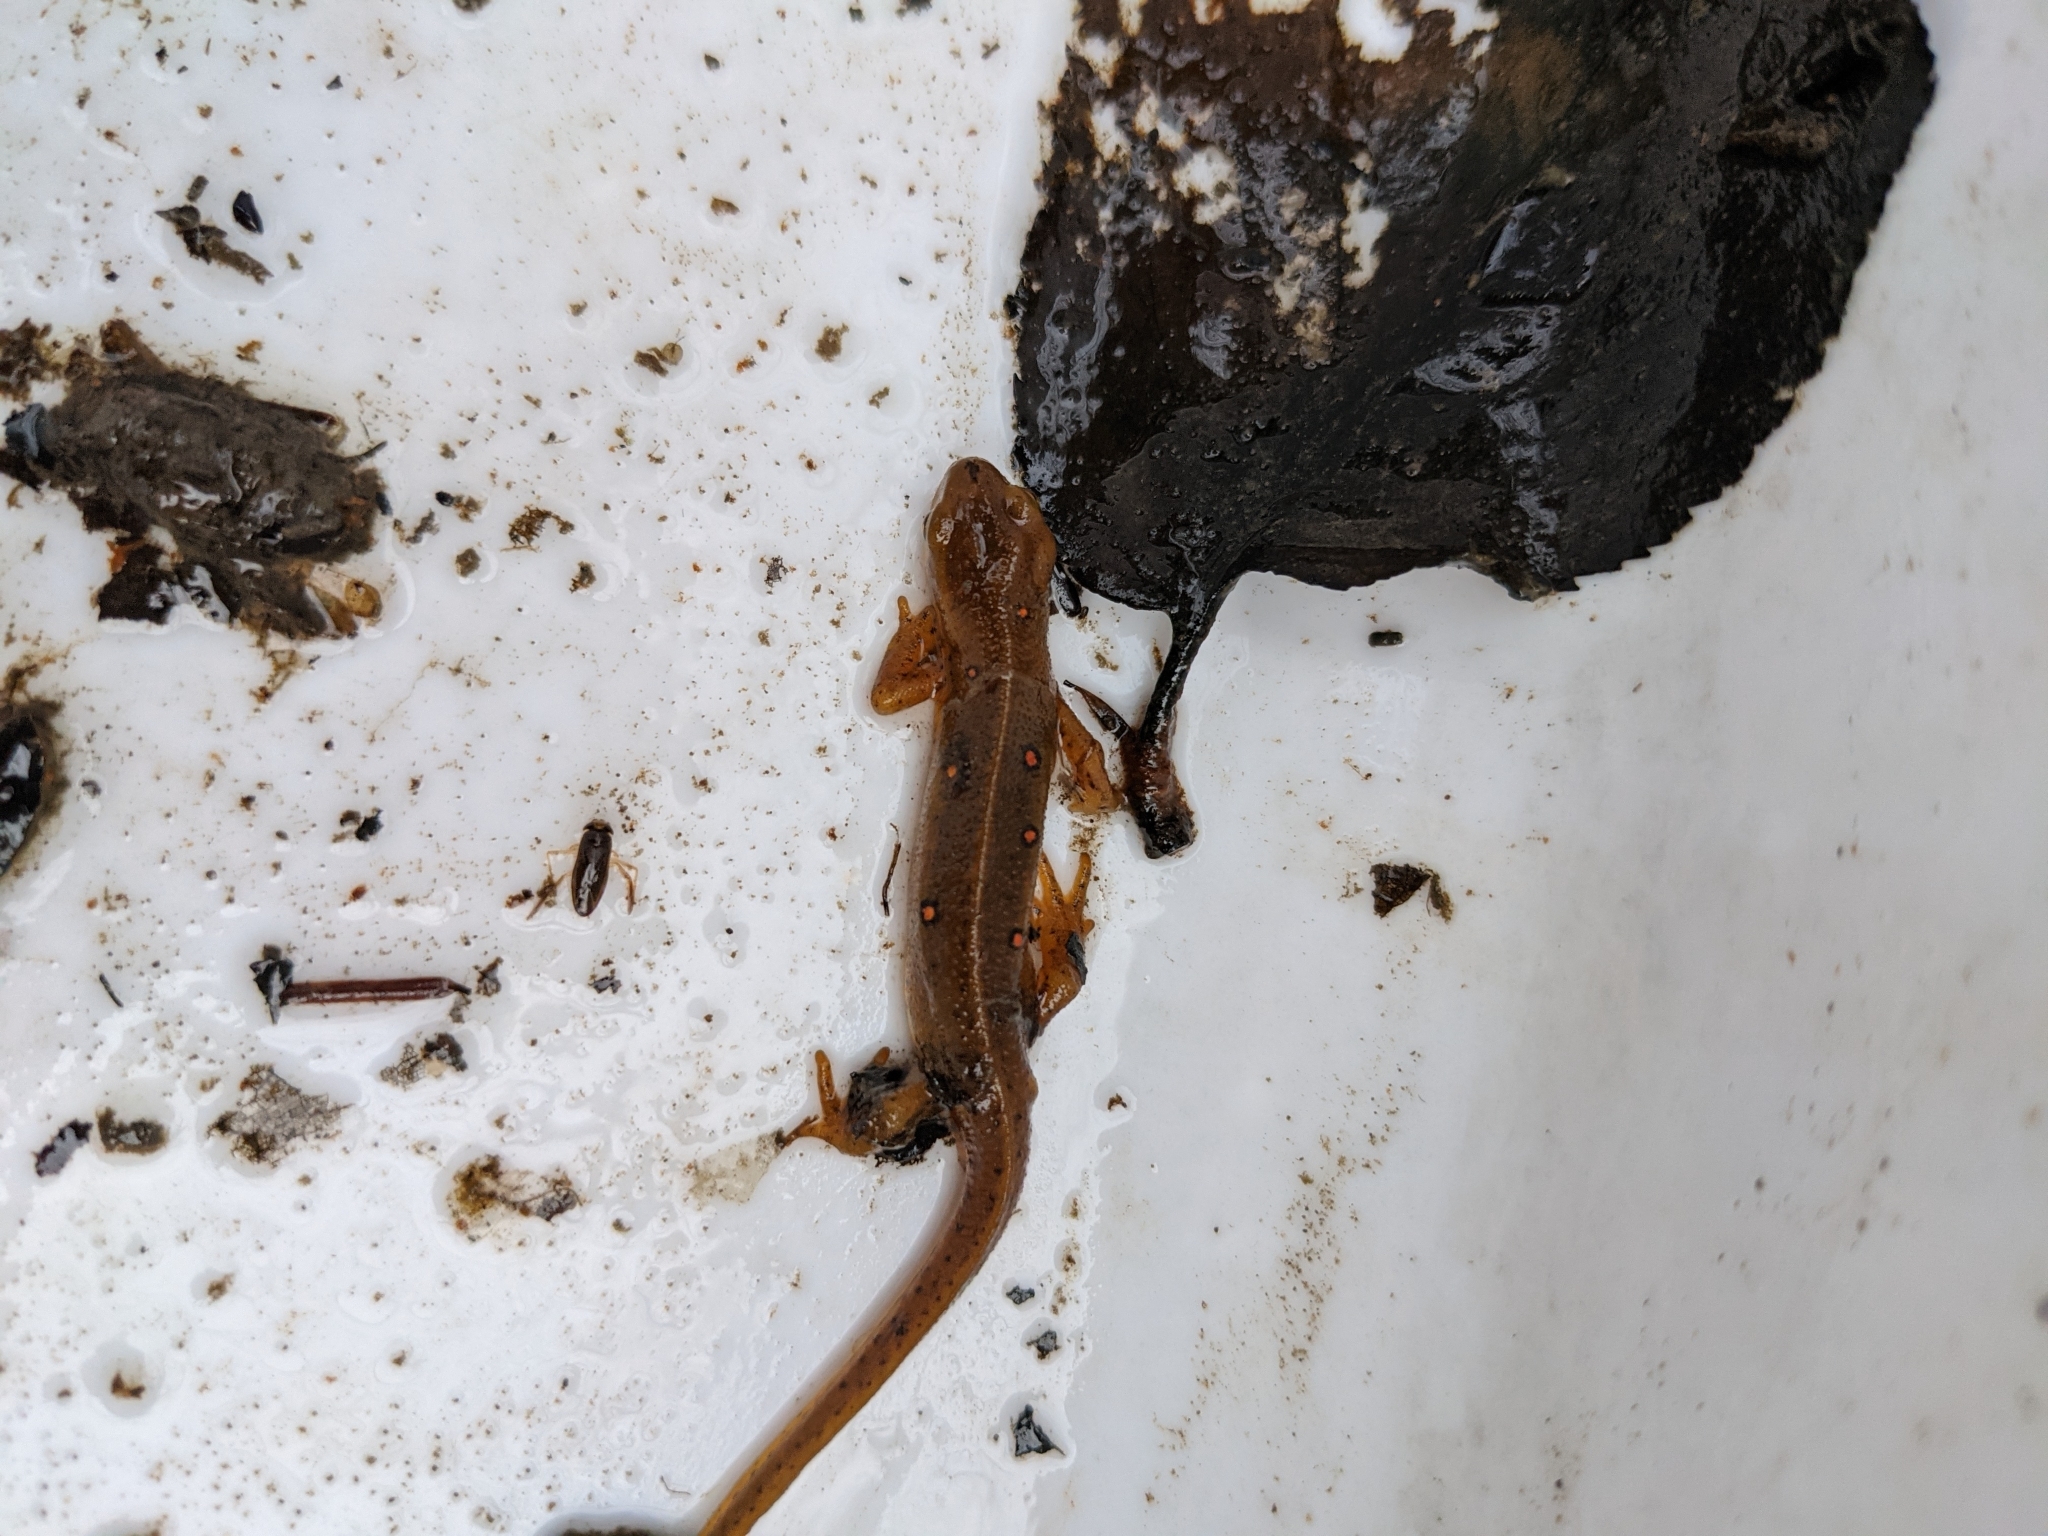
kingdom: Animalia
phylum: Chordata
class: Amphibia
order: Caudata
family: Salamandridae
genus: Notophthalmus
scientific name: Notophthalmus viridescens
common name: Eastern newt
